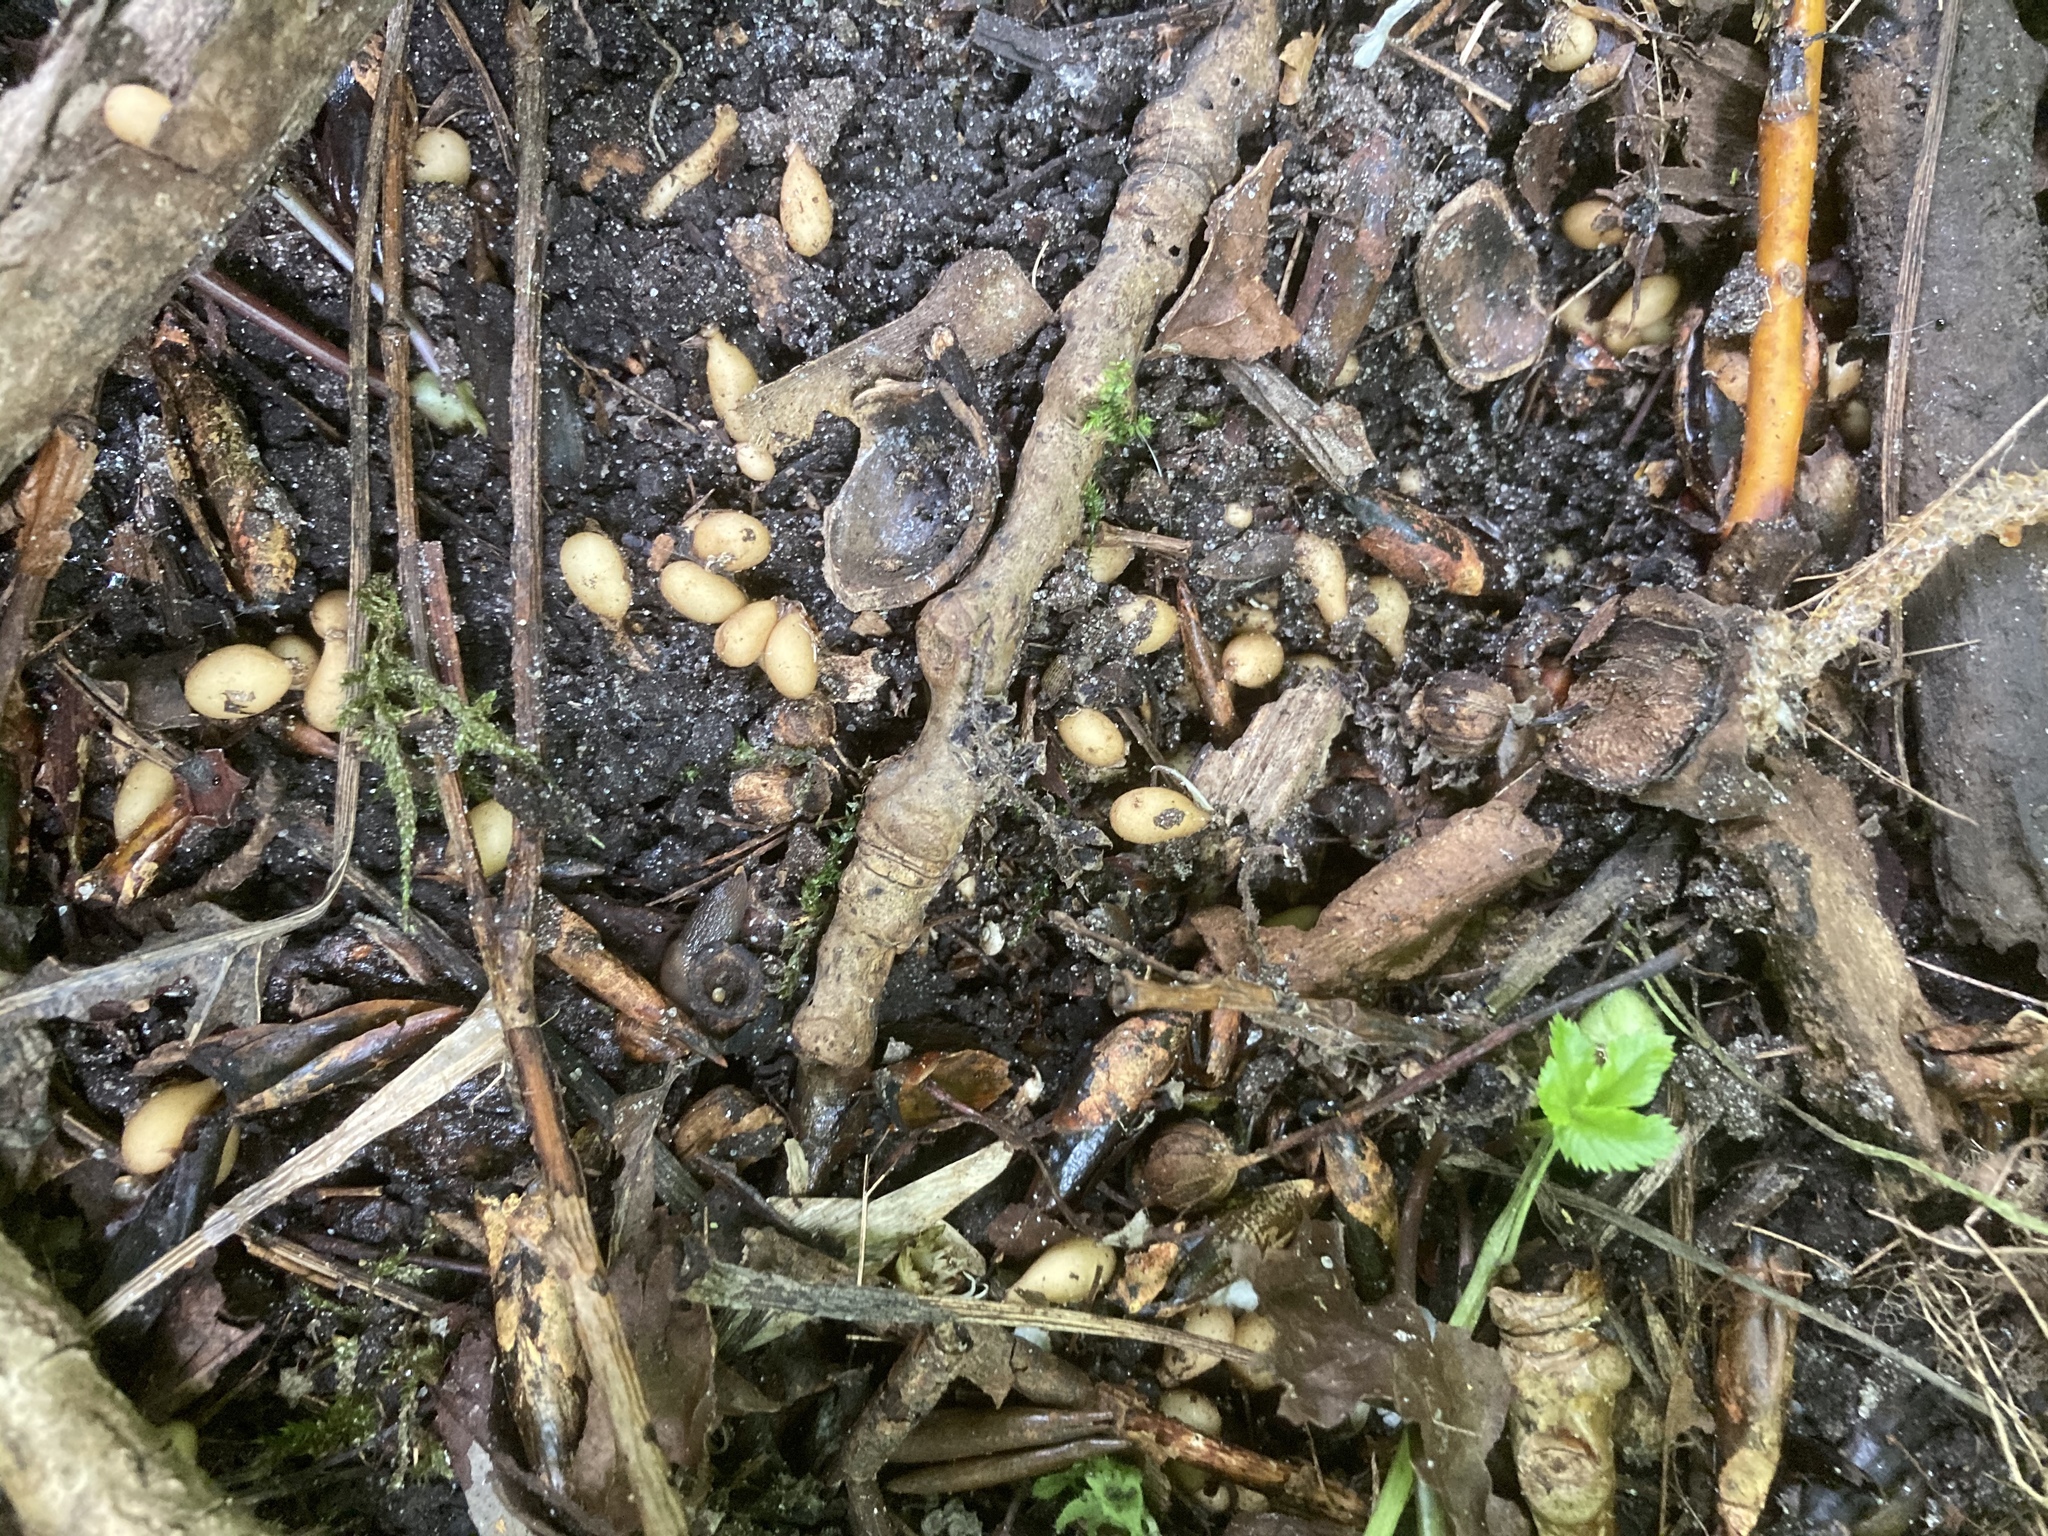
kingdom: Plantae
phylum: Tracheophyta
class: Magnoliopsida
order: Ranunculales
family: Ranunculaceae
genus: Ficaria
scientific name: Ficaria verna
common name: Lesser celandine
